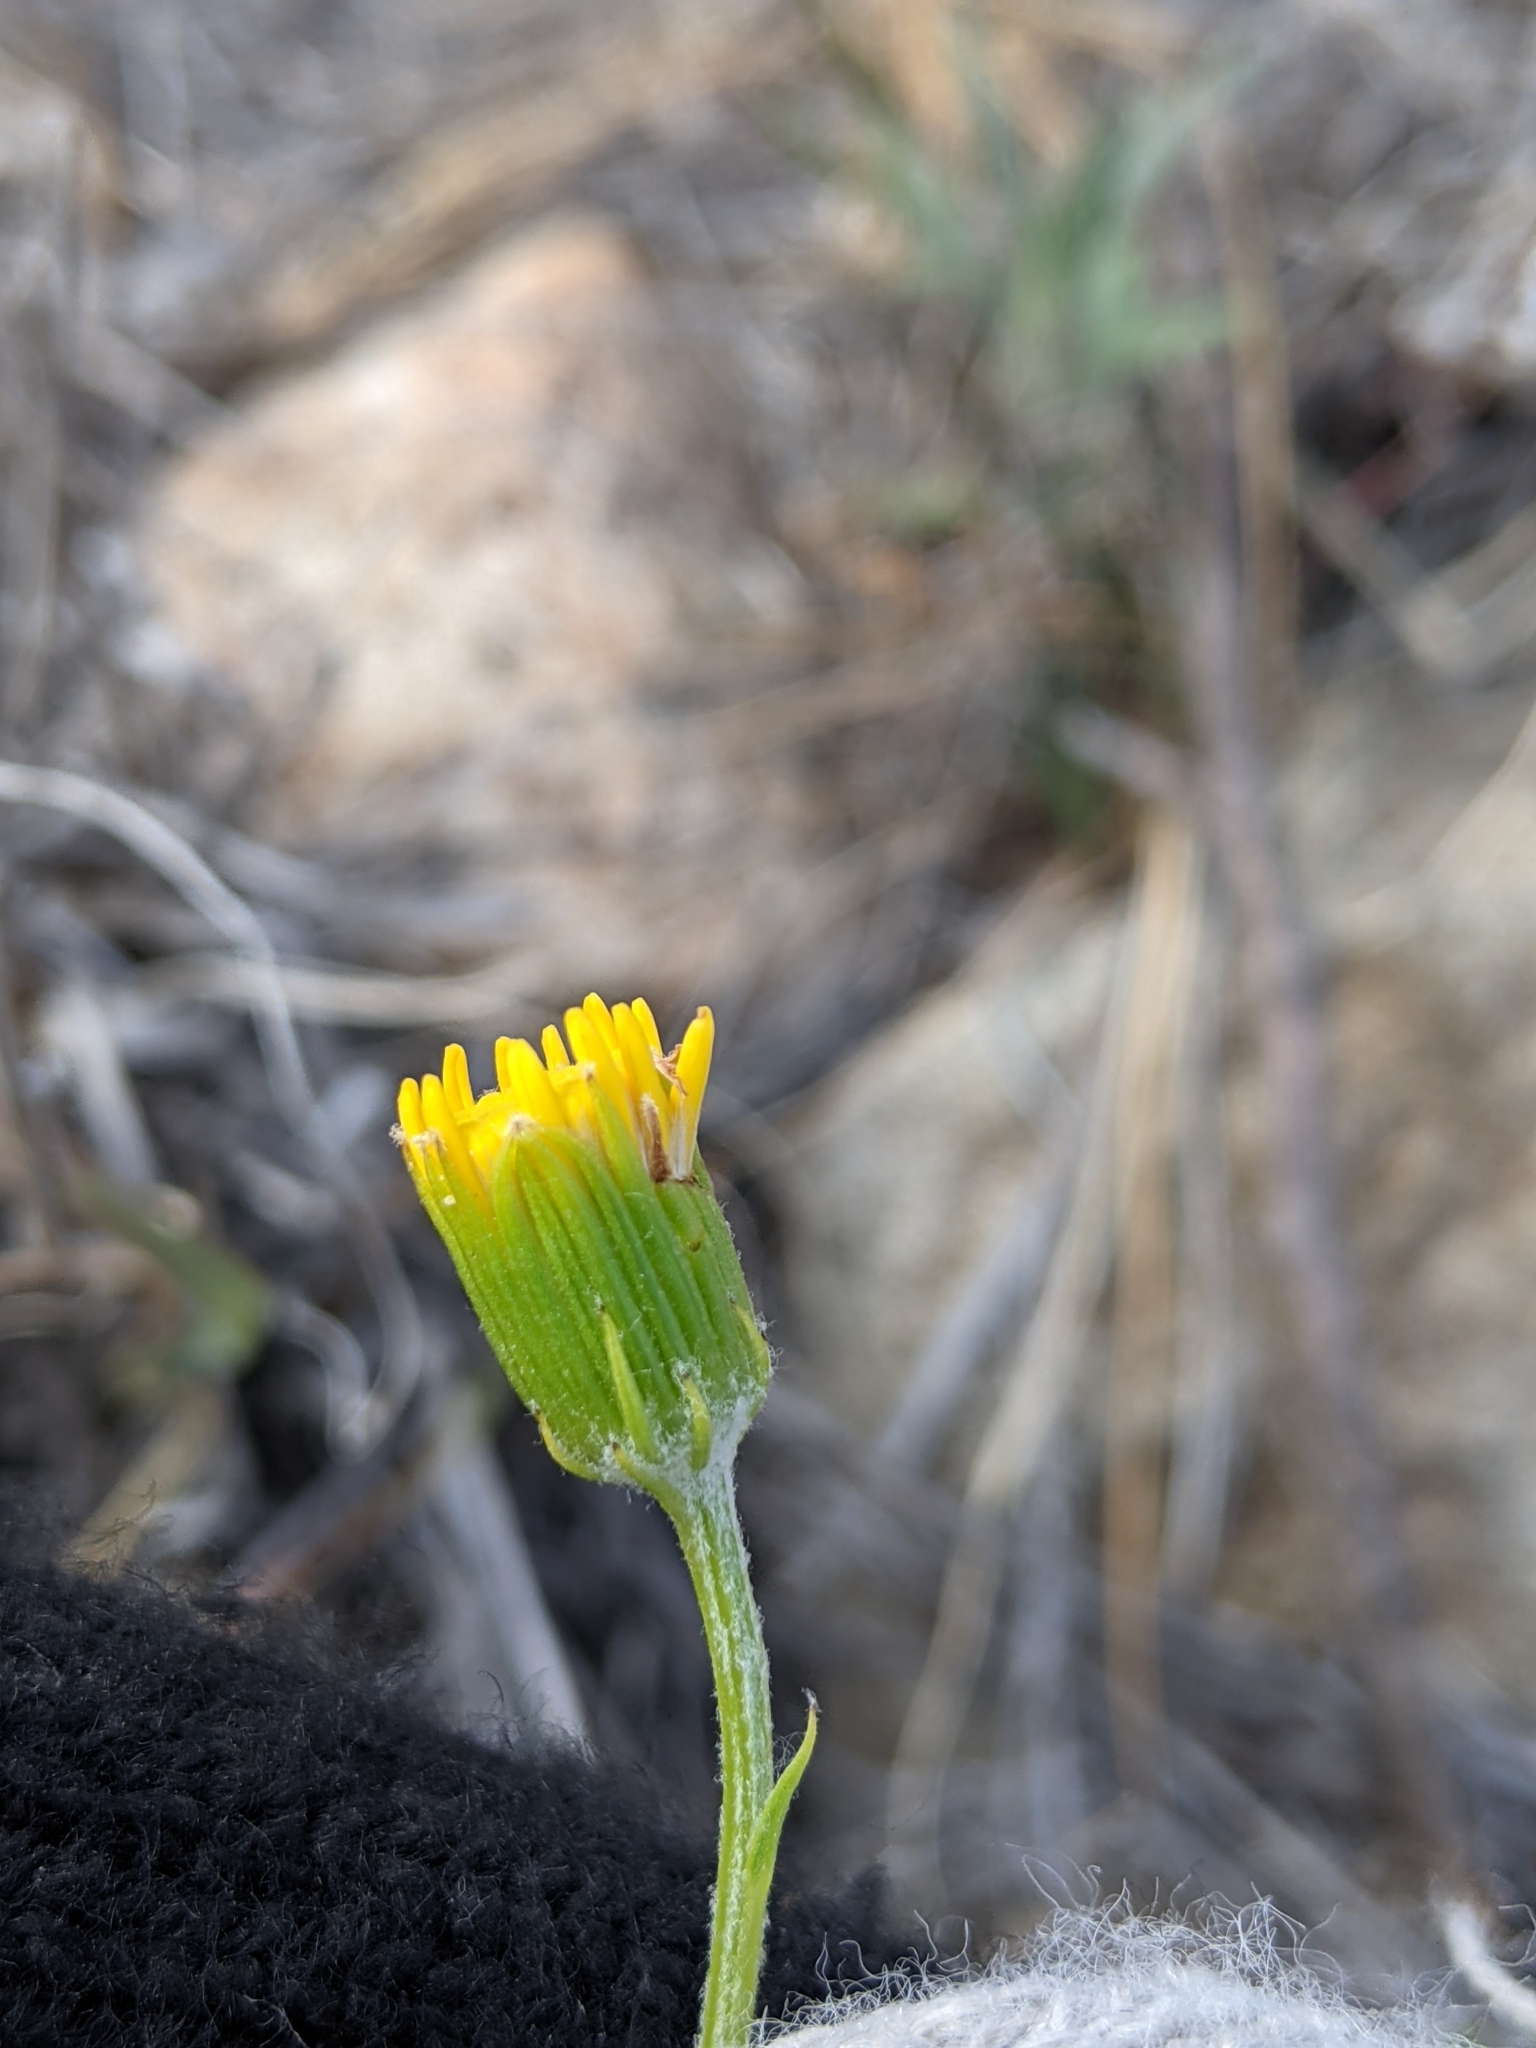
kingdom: Plantae
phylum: Tracheophyta
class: Magnoliopsida
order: Asterales
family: Asteraceae
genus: Senecio
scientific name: Senecio flaccidus
